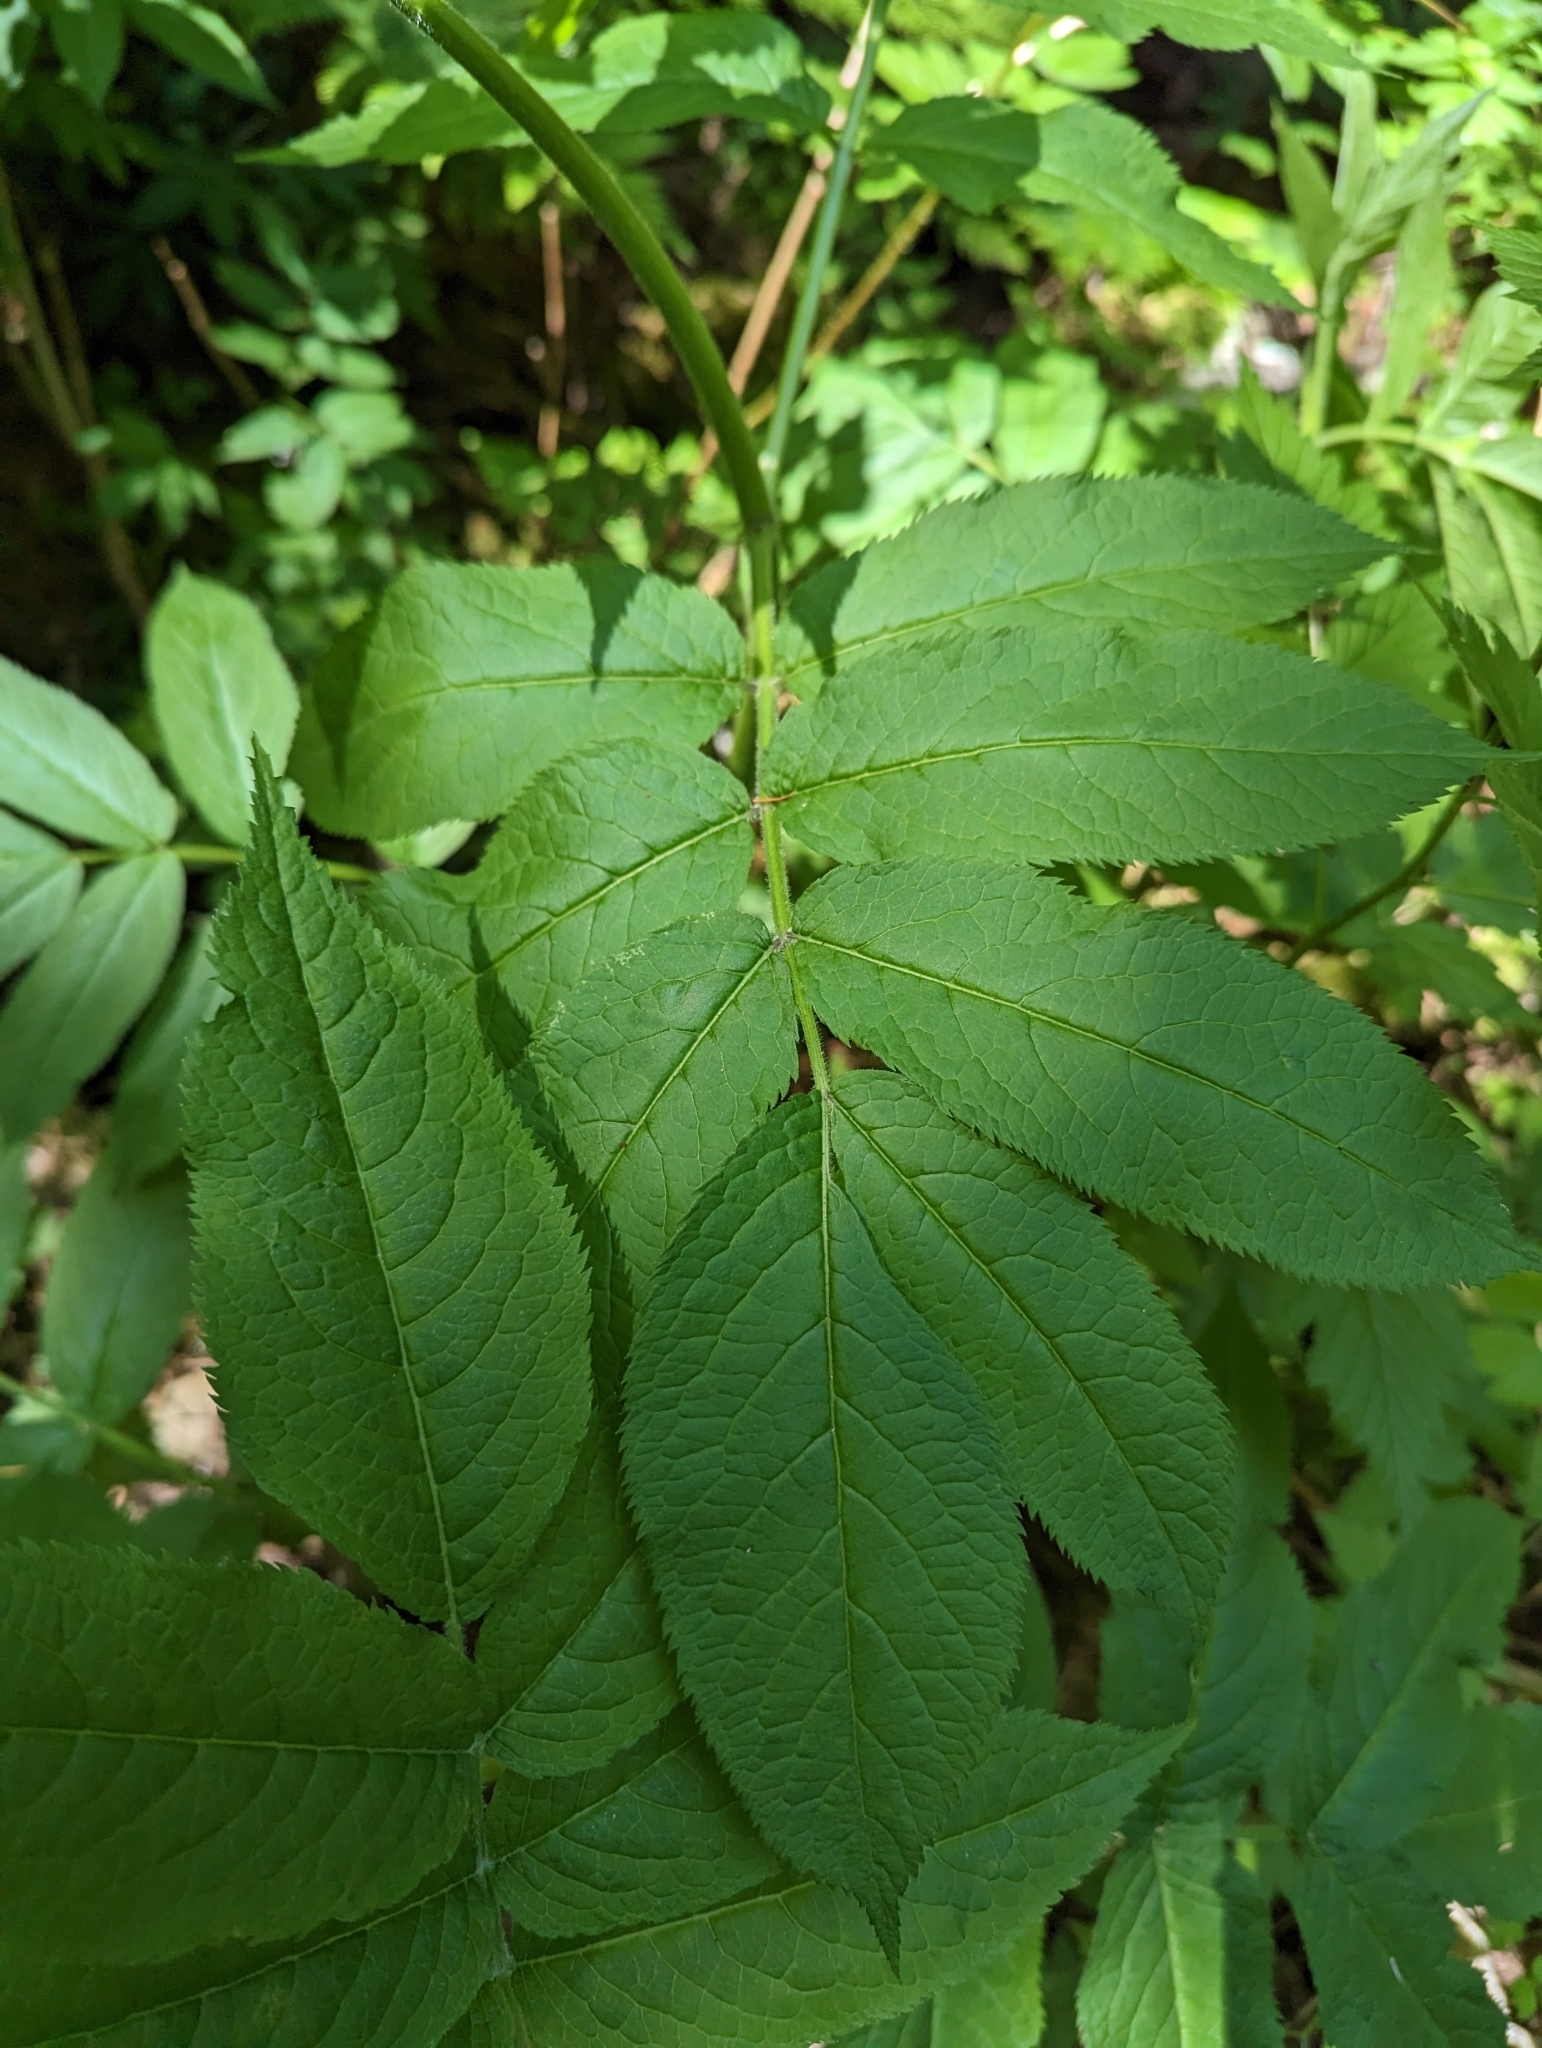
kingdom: Plantae
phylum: Tracheophyta
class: Magnoliopsida
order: Dipsacales
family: Viburnaceae
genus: Sambucus
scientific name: Sambucus racemosa
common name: Red-berried elder
